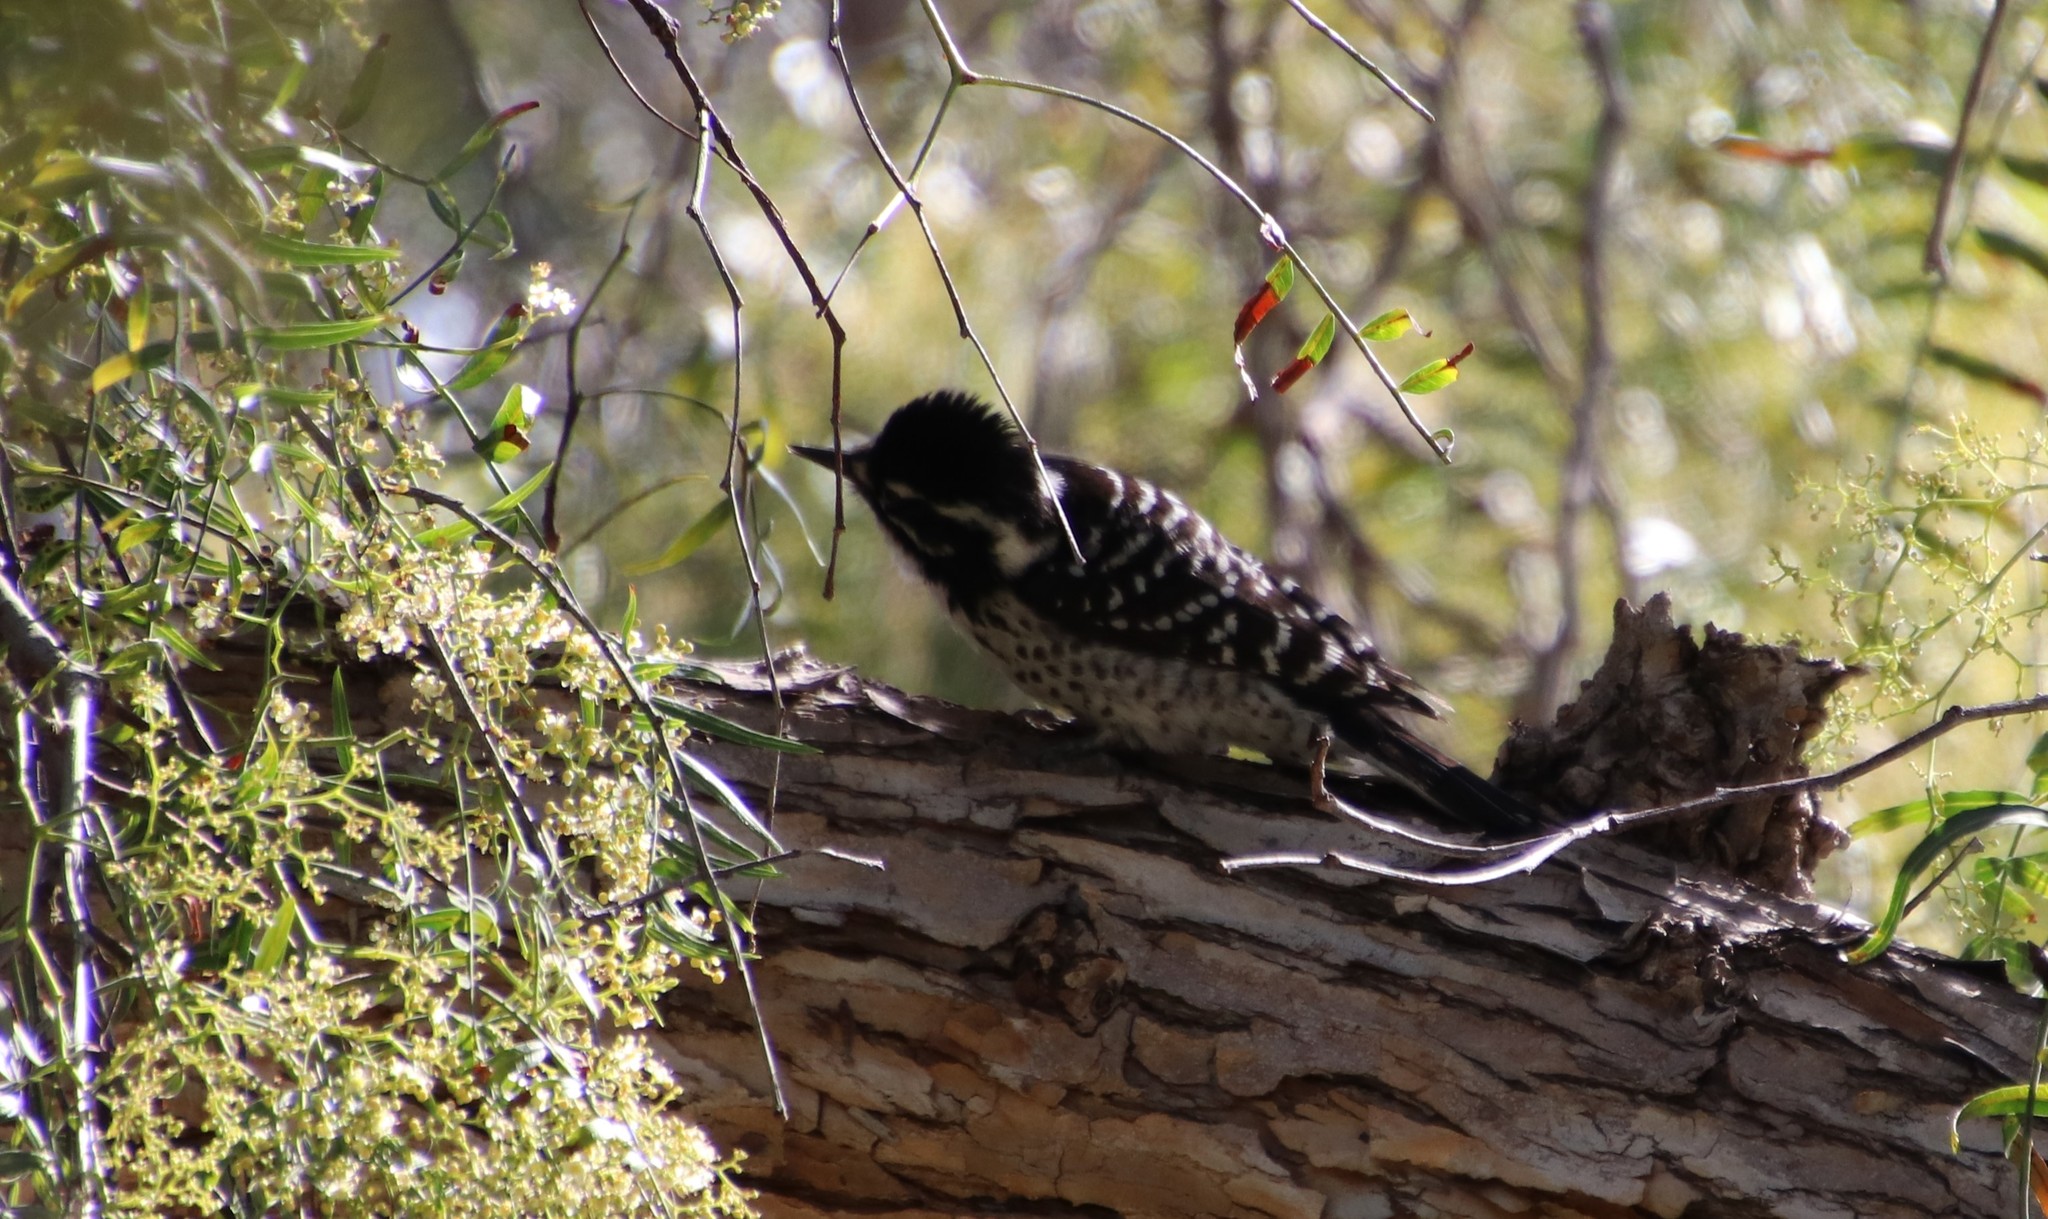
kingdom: Animalia
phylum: Chordata
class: Aves
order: Piciformes
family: Picidae
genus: Dryobates
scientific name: Dryobates nuttallii
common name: Nuttall's woodpecker
